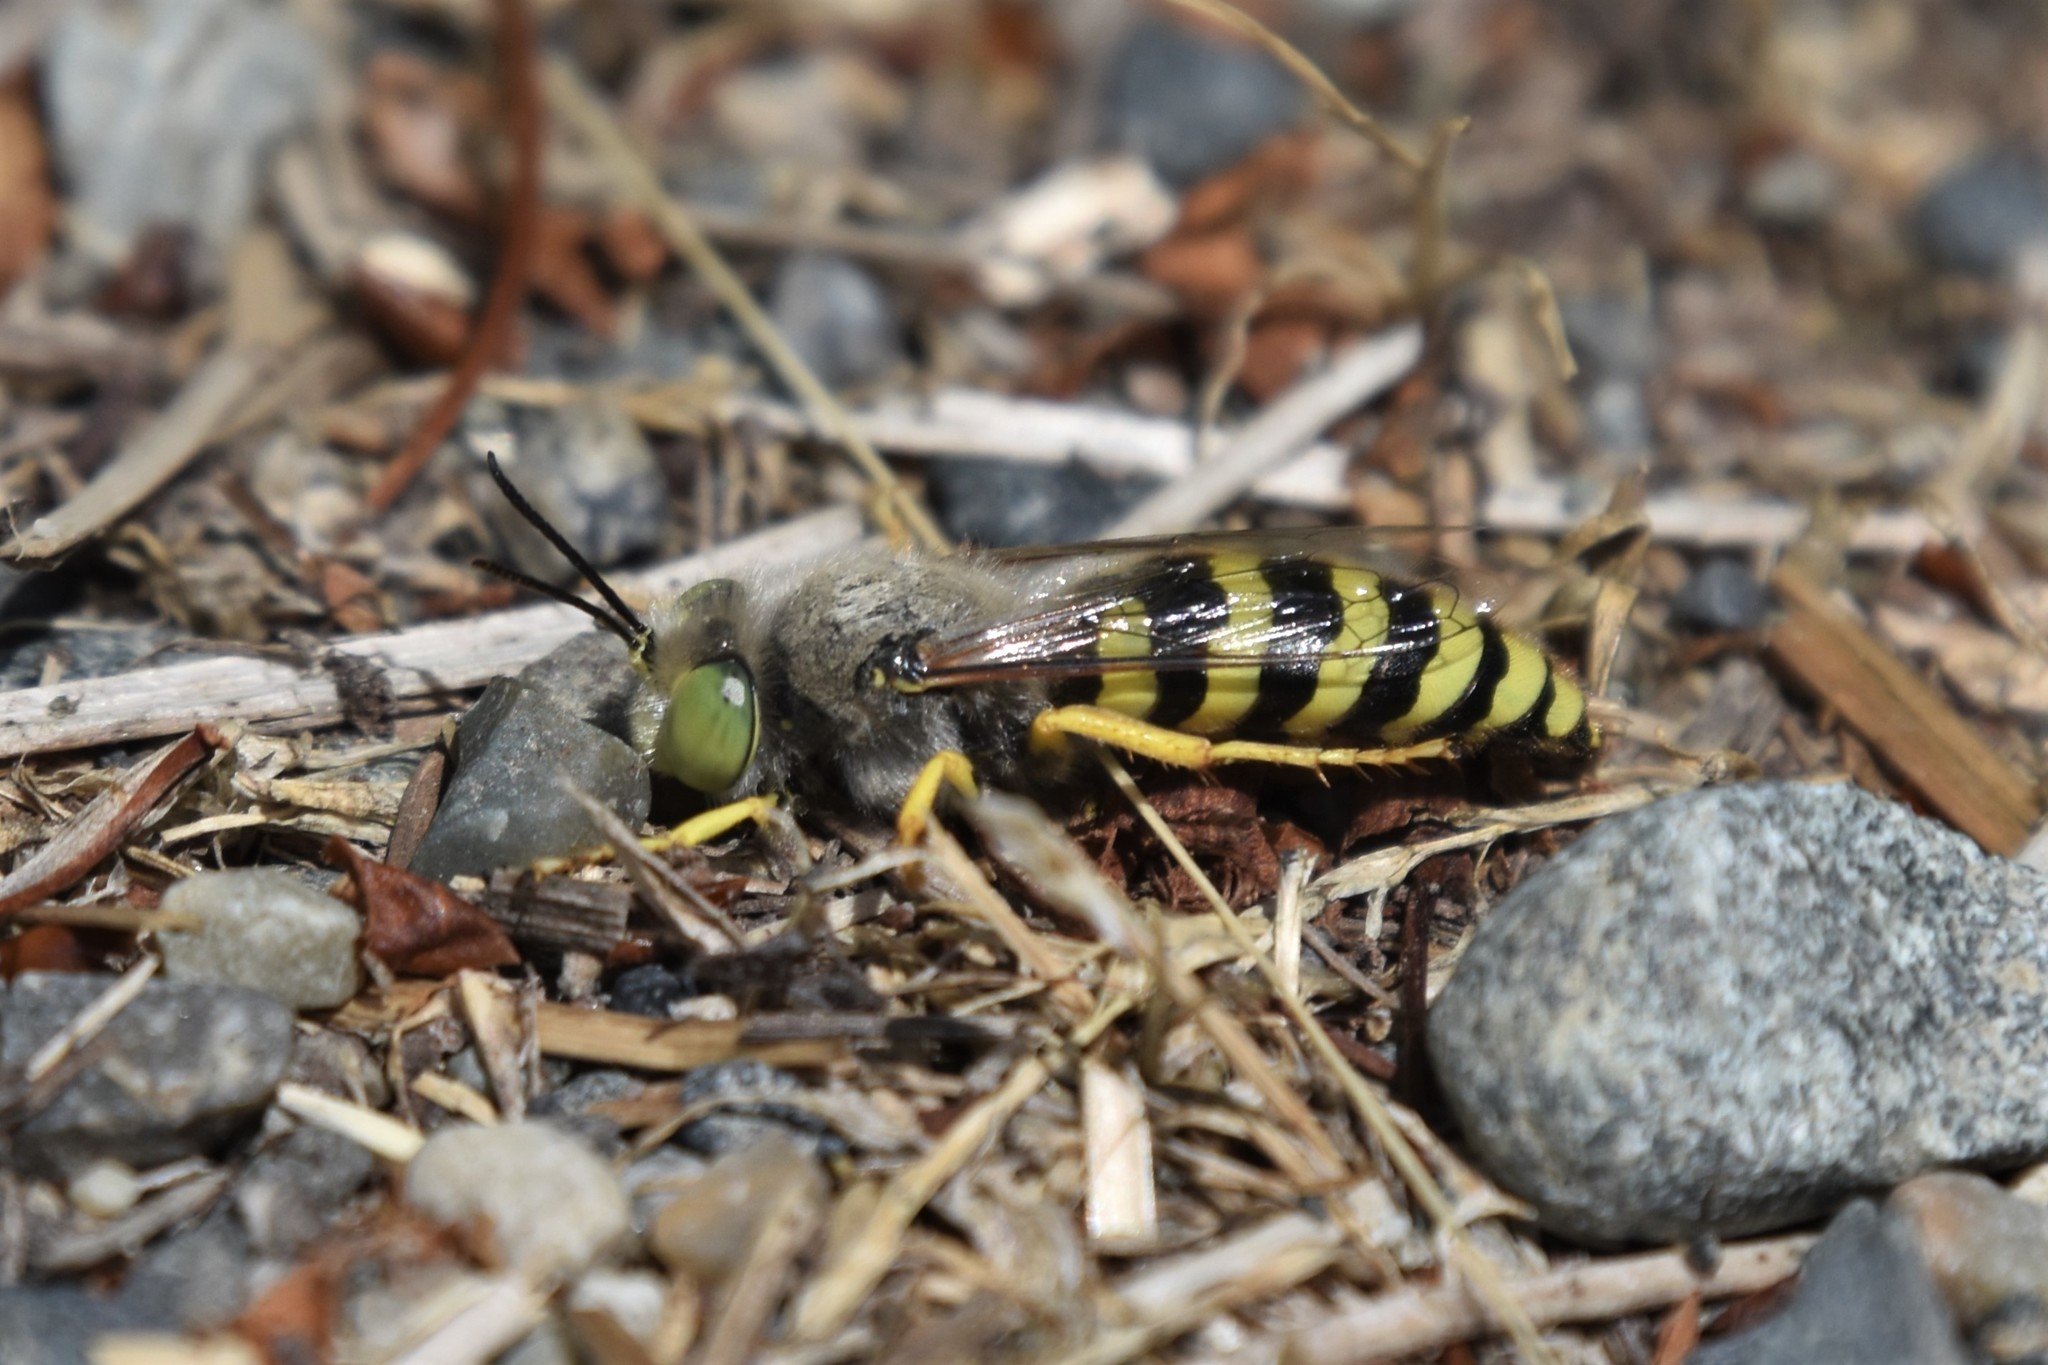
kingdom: Animalia
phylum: Arthropoda
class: Insecta
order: Hymenoptera
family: Crabronidae
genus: Bembix
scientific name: Bembix americana
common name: American sand wasp
